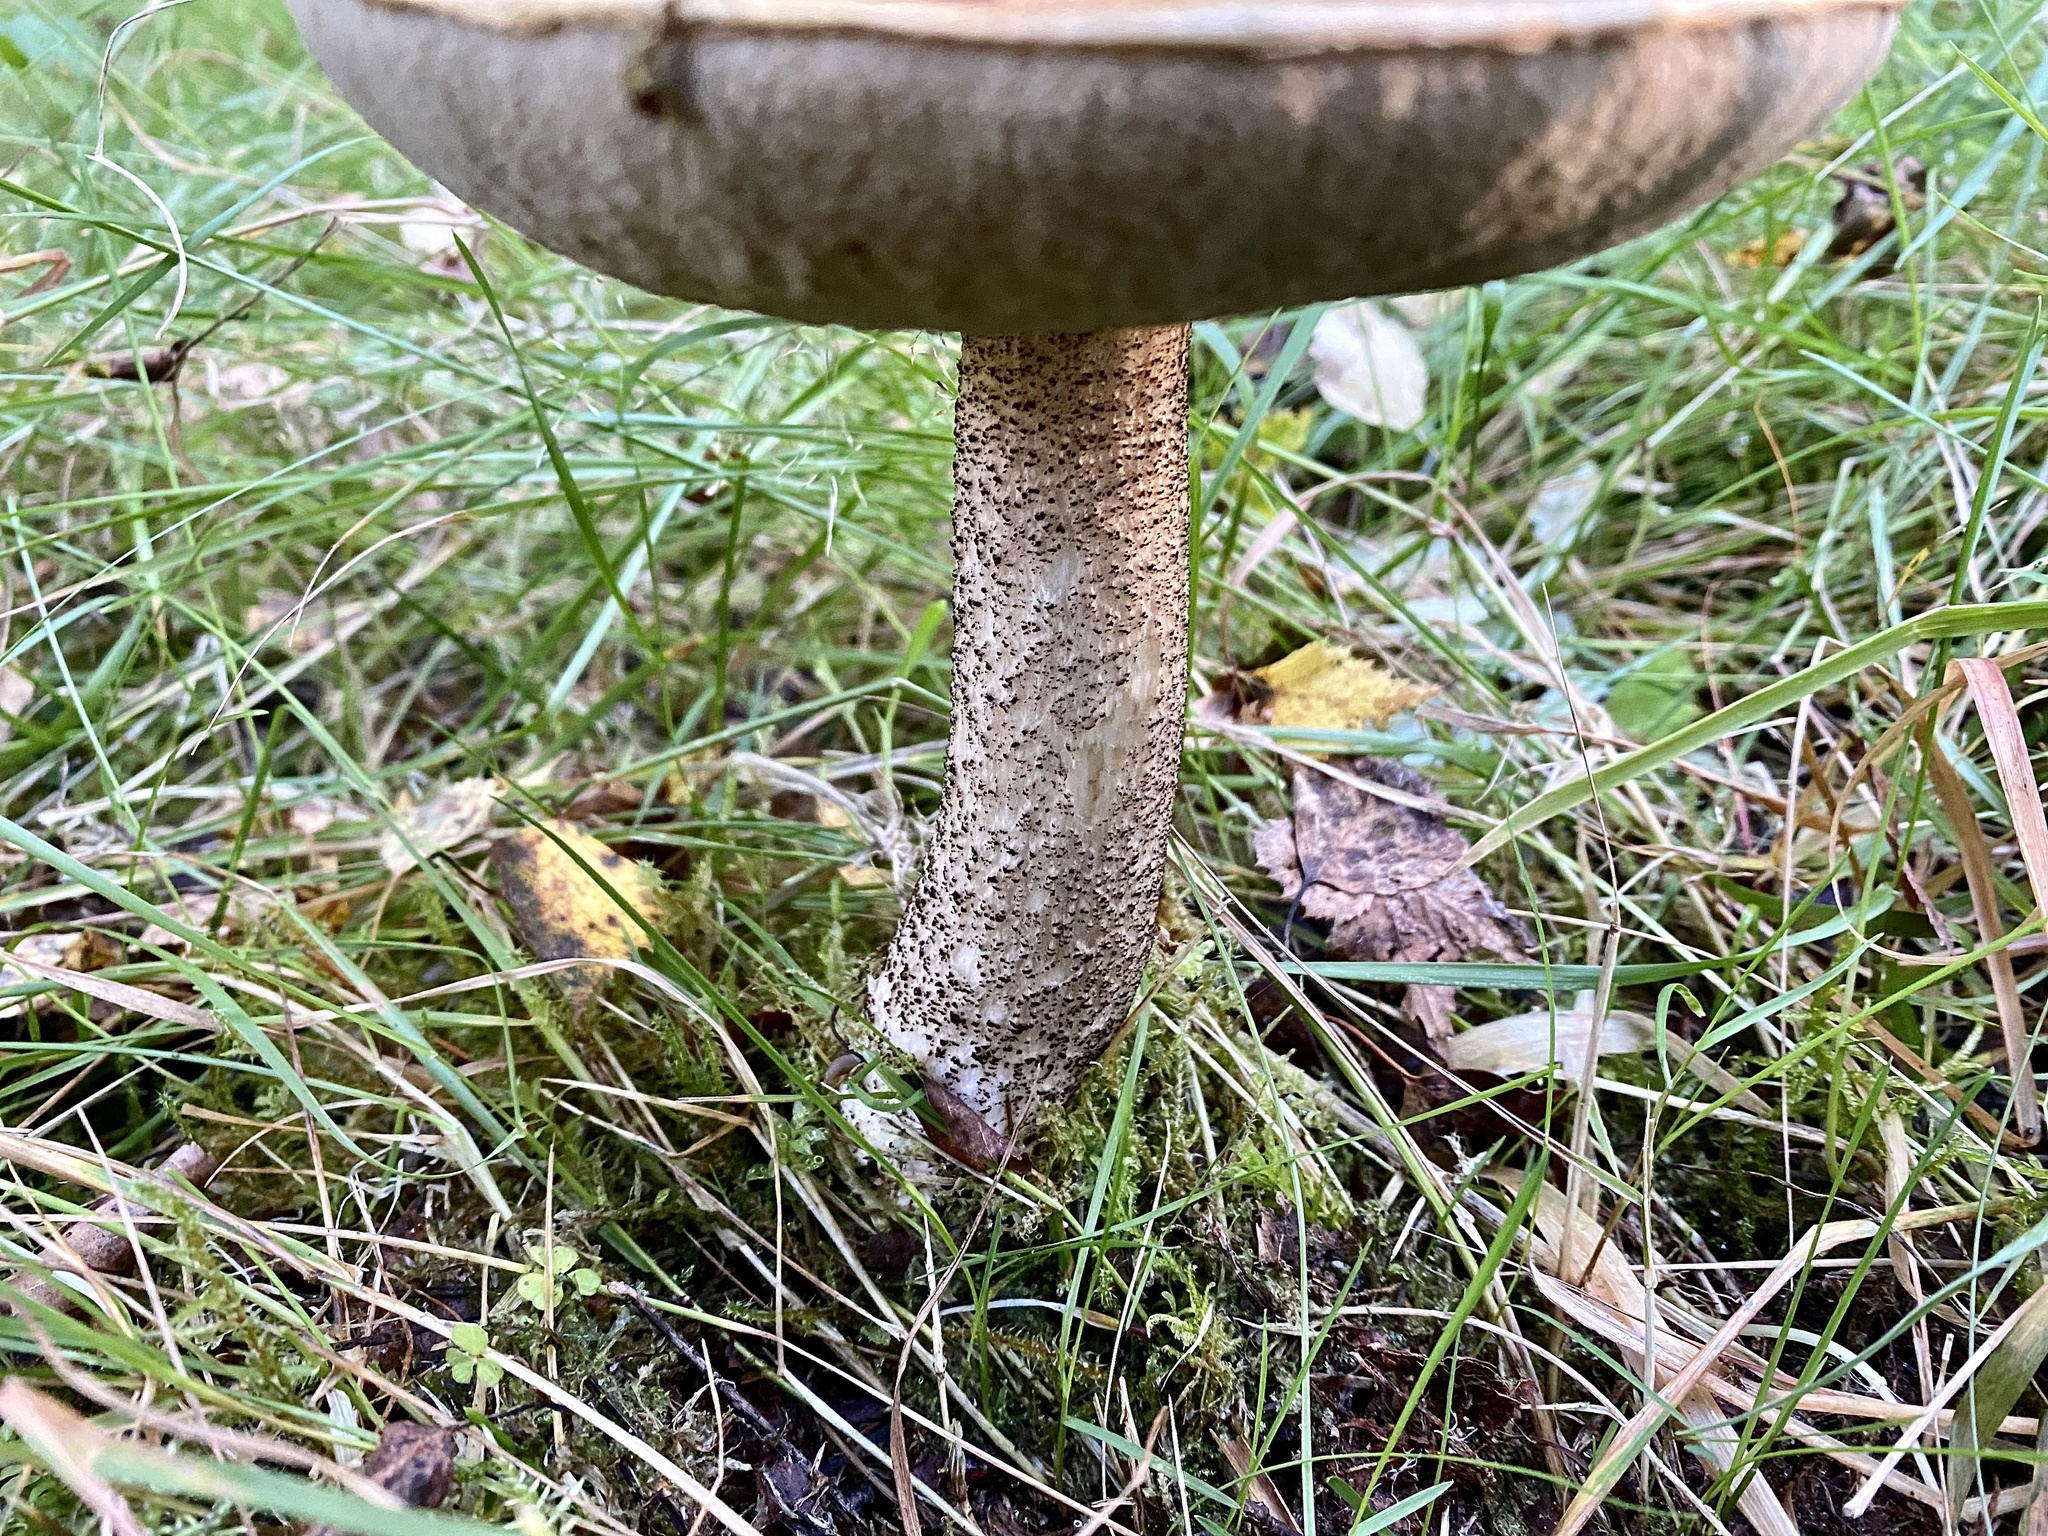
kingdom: Fungi
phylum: Basidiomycota
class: Agaricomycetes
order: Boletales
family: Boletaceae
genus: Leccinum
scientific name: Leccinum versipelle
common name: Orange birch bolete
